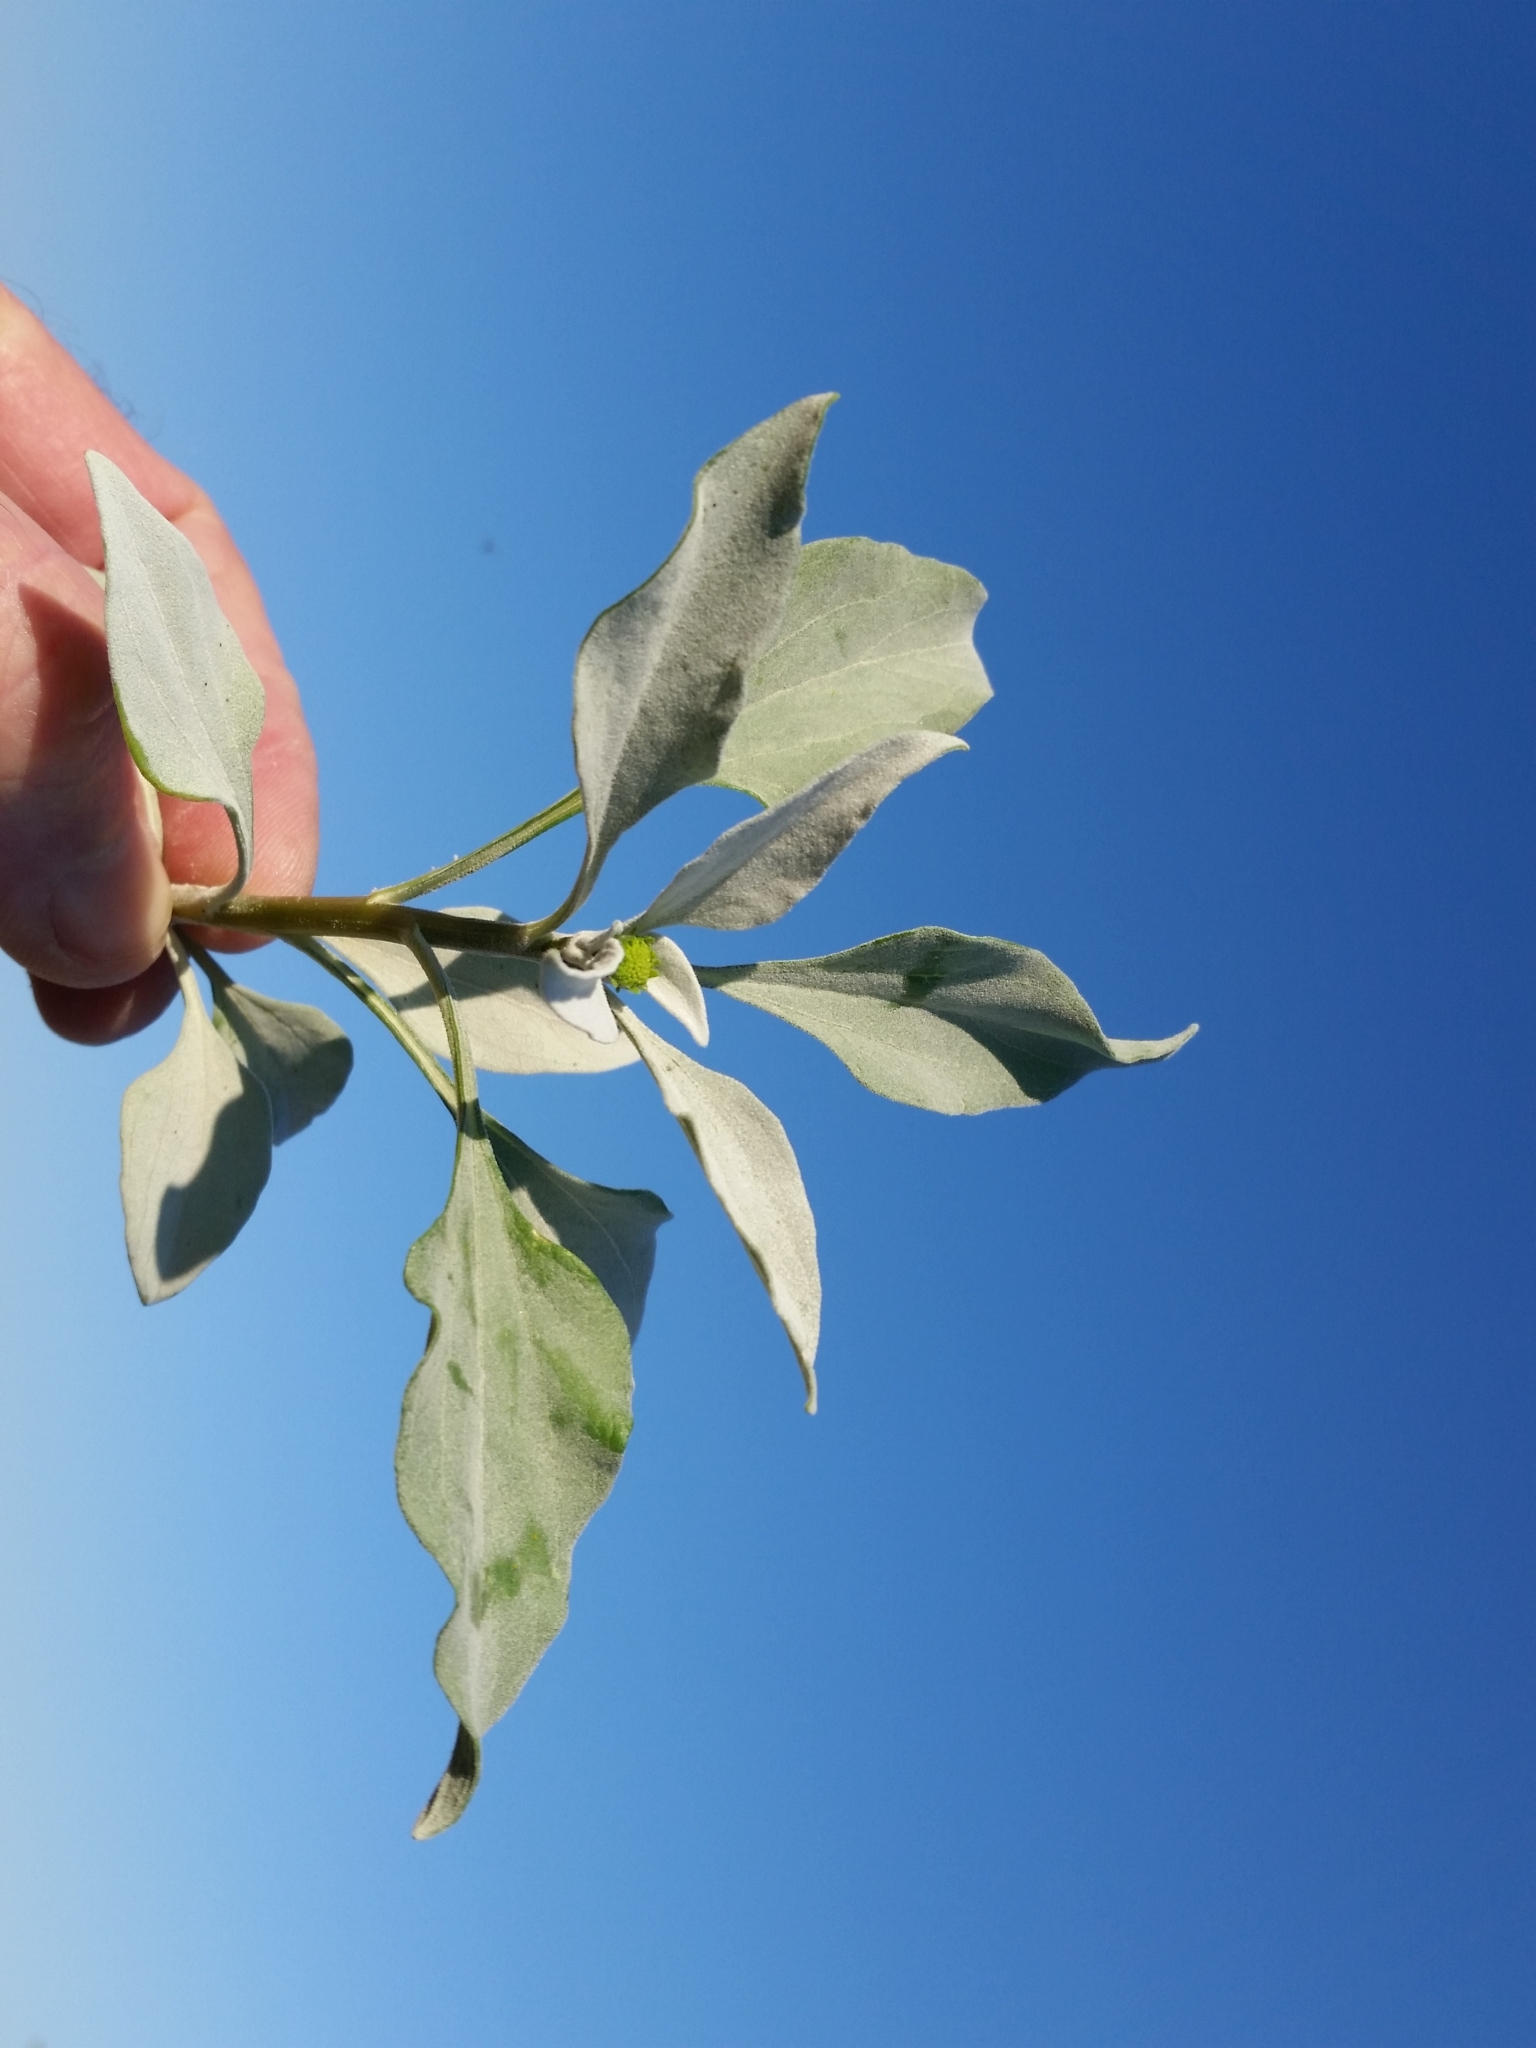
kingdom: Plantae
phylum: Tracheophyta
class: Magnoliopsida
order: Asterales
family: Asteraceae
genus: Encelia
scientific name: Encelia farinosa
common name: Brittlebush
